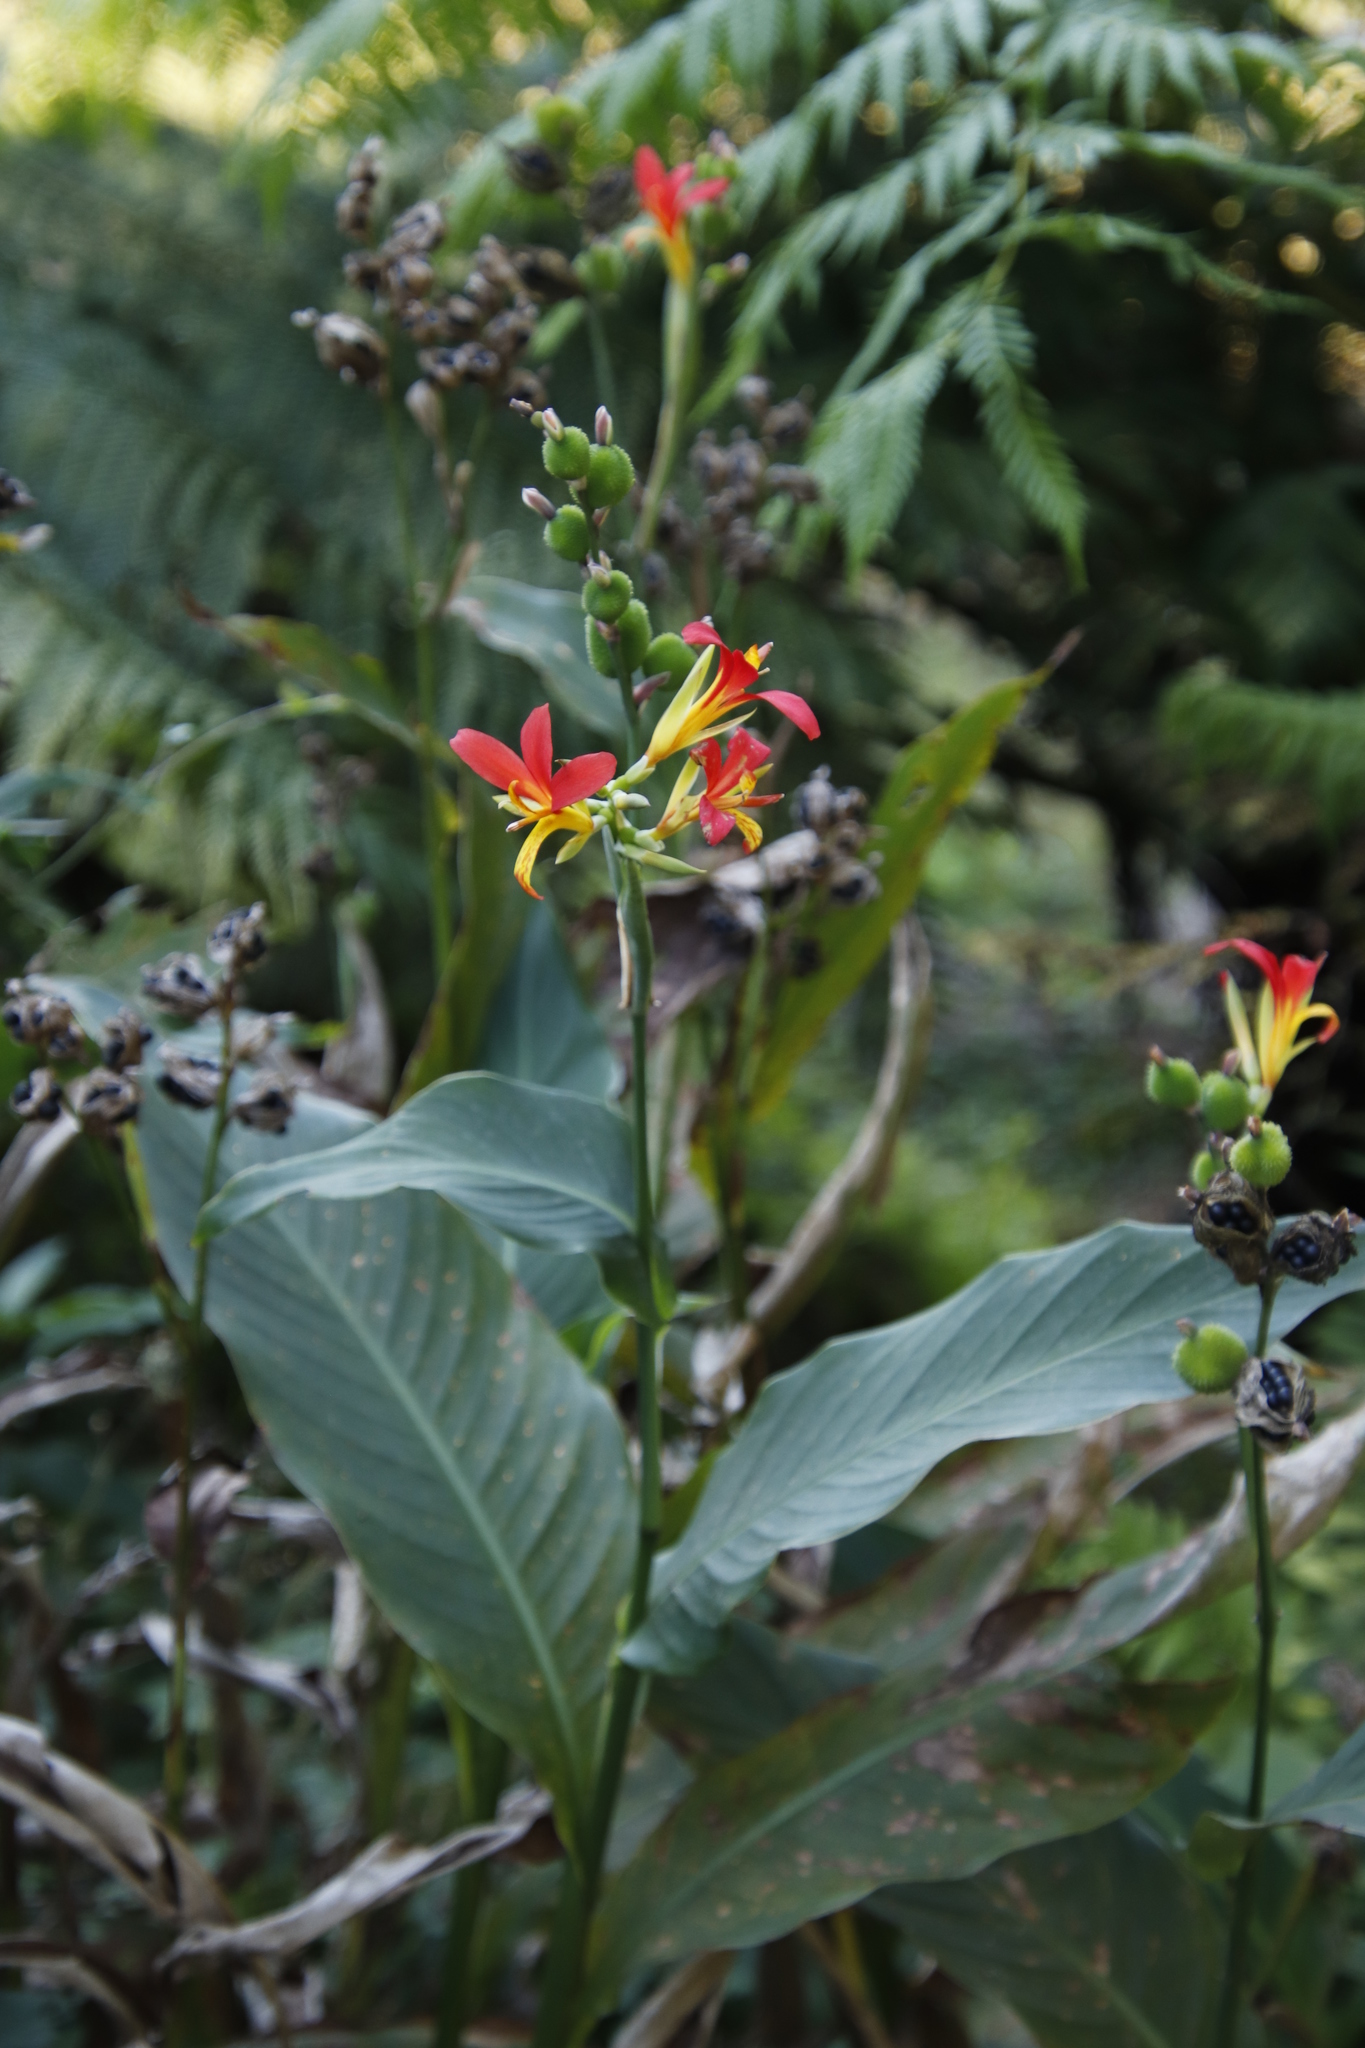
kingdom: Plantae
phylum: Tracheophyta
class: Liliopsida
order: Zingiberales
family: Cannaceae
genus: Canna
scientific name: Canna indica
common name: Indian shot
